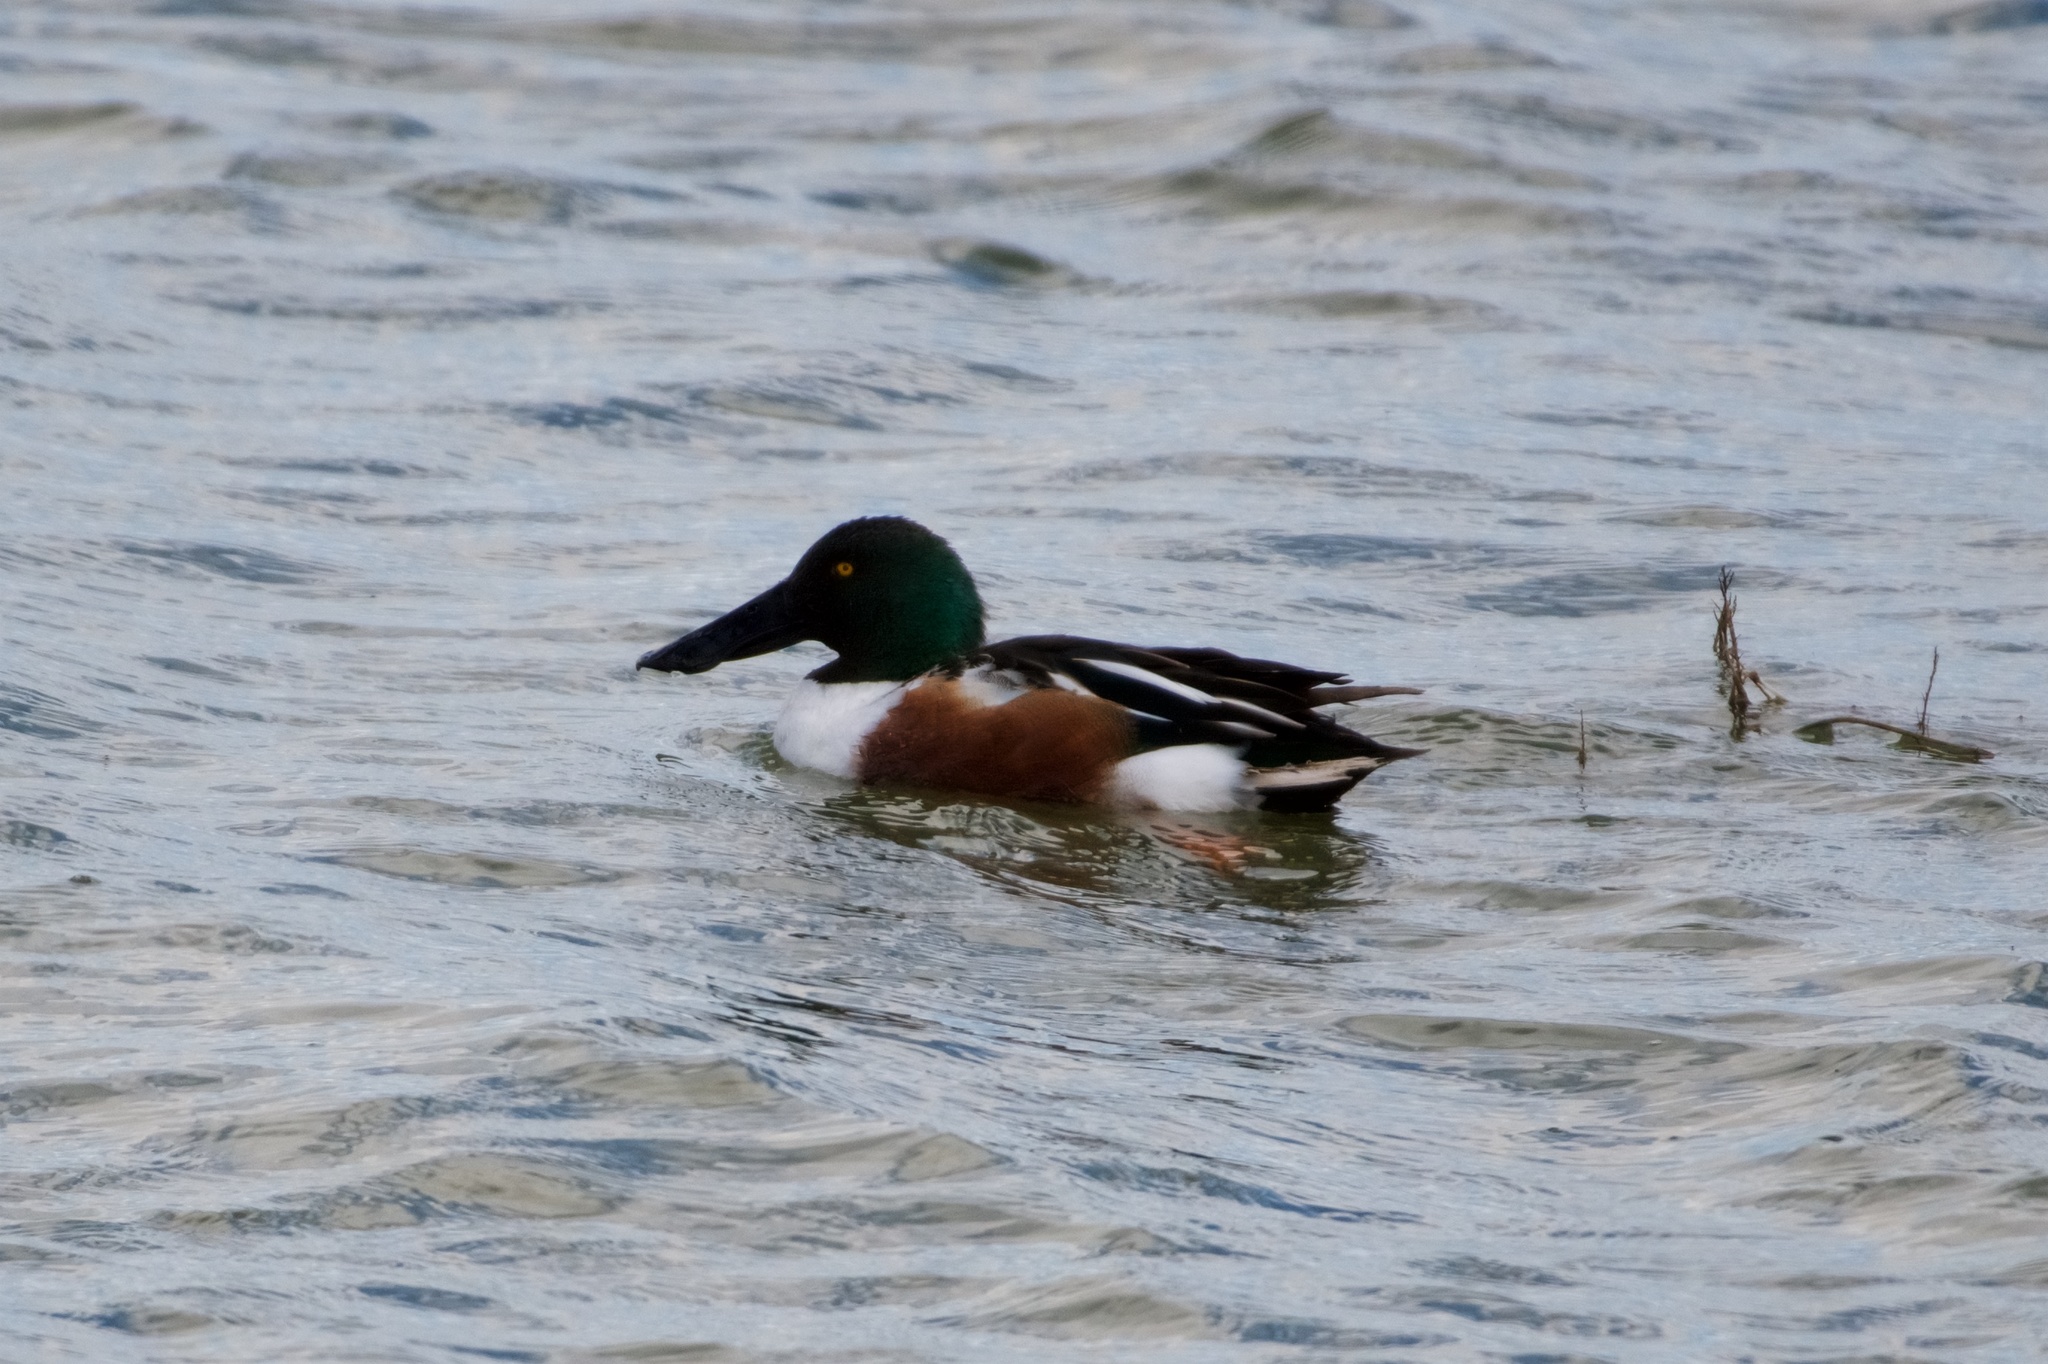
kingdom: Animalia
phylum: Chordata
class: Aves
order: Anseriformes
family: Anatidae
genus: Spatula
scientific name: Spatula clypeata
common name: Northern shoveler
